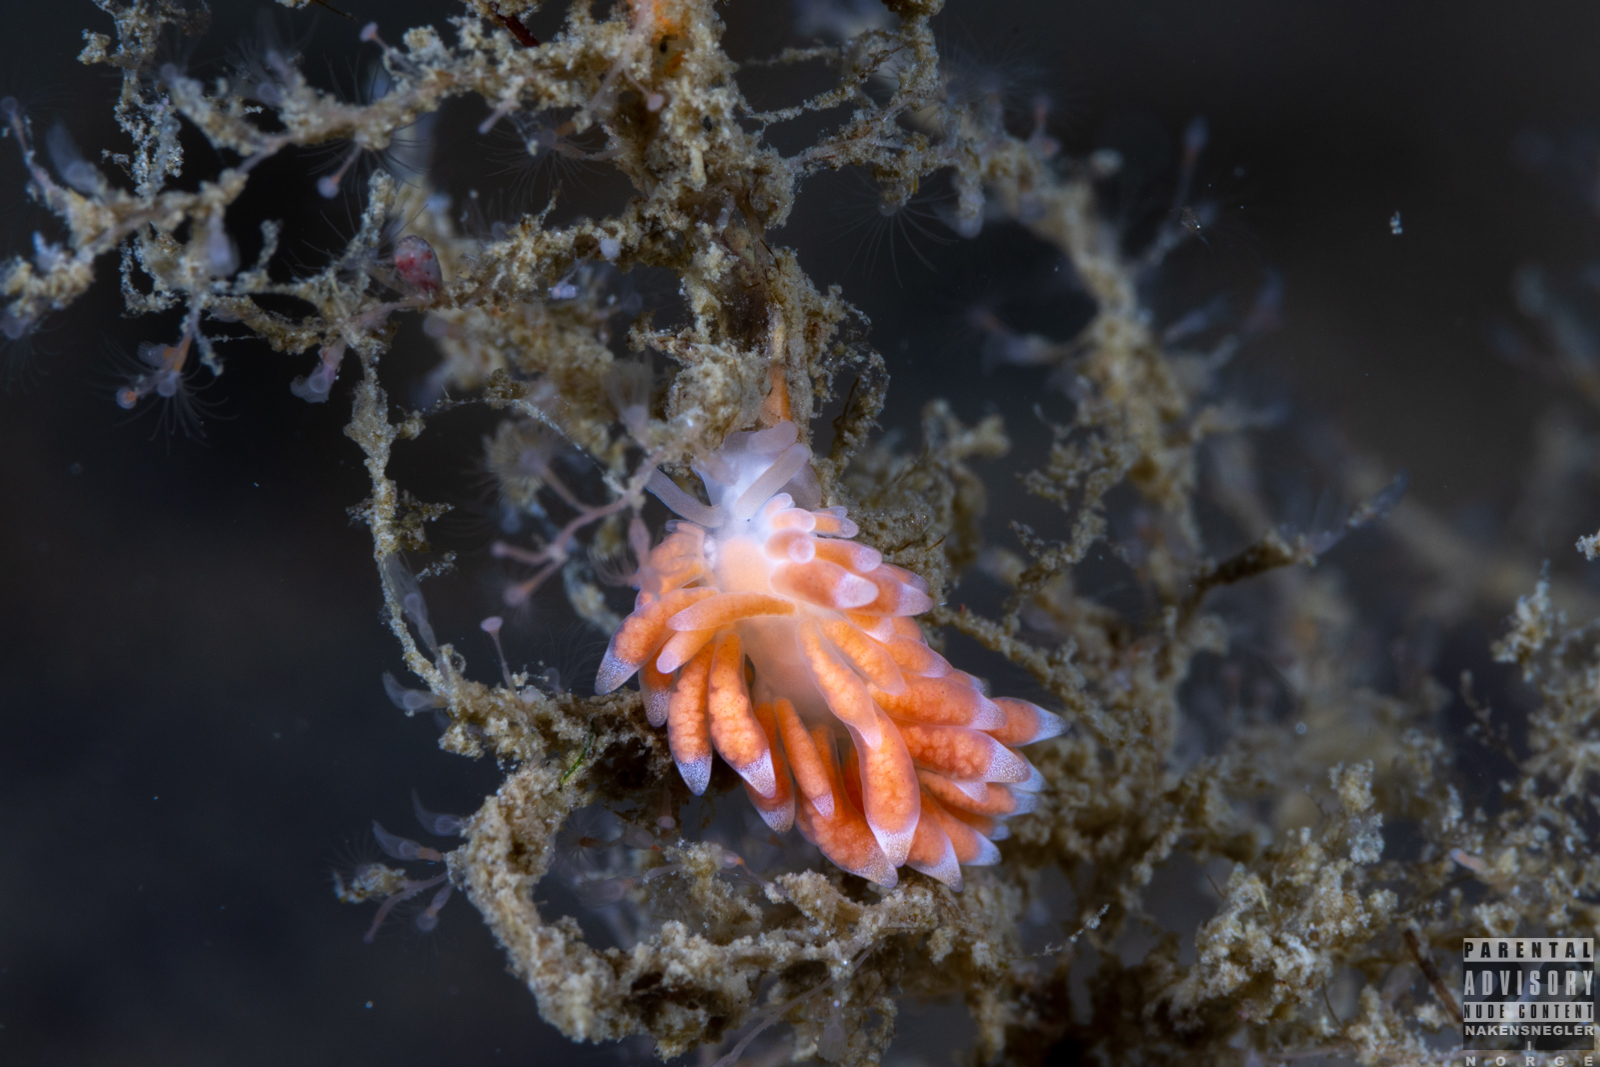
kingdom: Animalia
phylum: Mollusca
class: Gastropoda
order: Nudibranchia
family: Trinchesiidae
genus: Catriona
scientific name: Catriona aurantia
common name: Corange-tip cuthona
